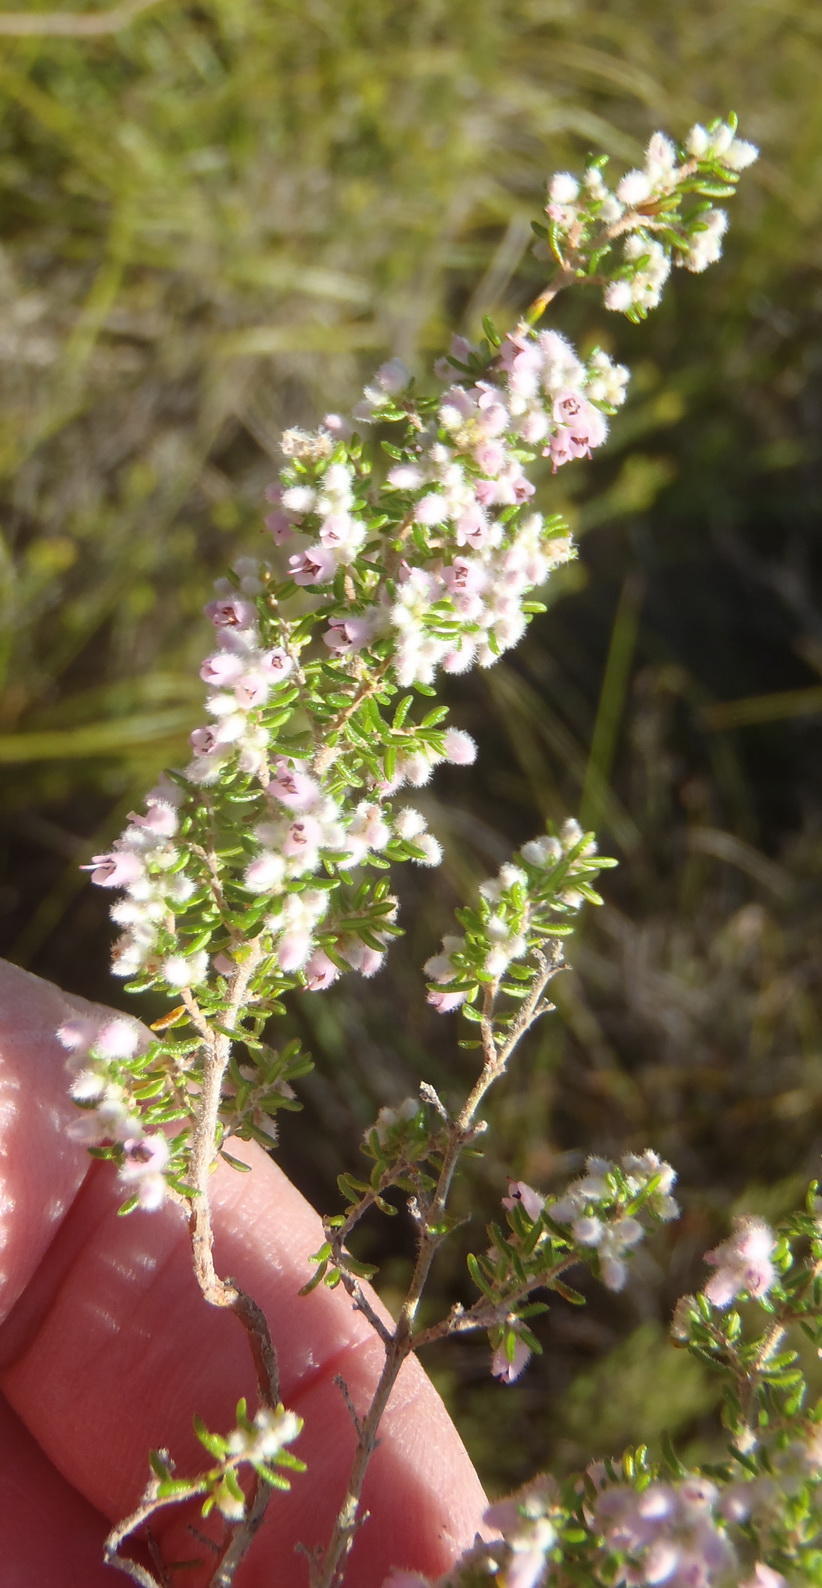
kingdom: Plantae
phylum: Tracheophyta
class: Magnoliopsida
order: Ericales
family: Ericaceae
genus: Erica
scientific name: Erica vallis-fluminis
